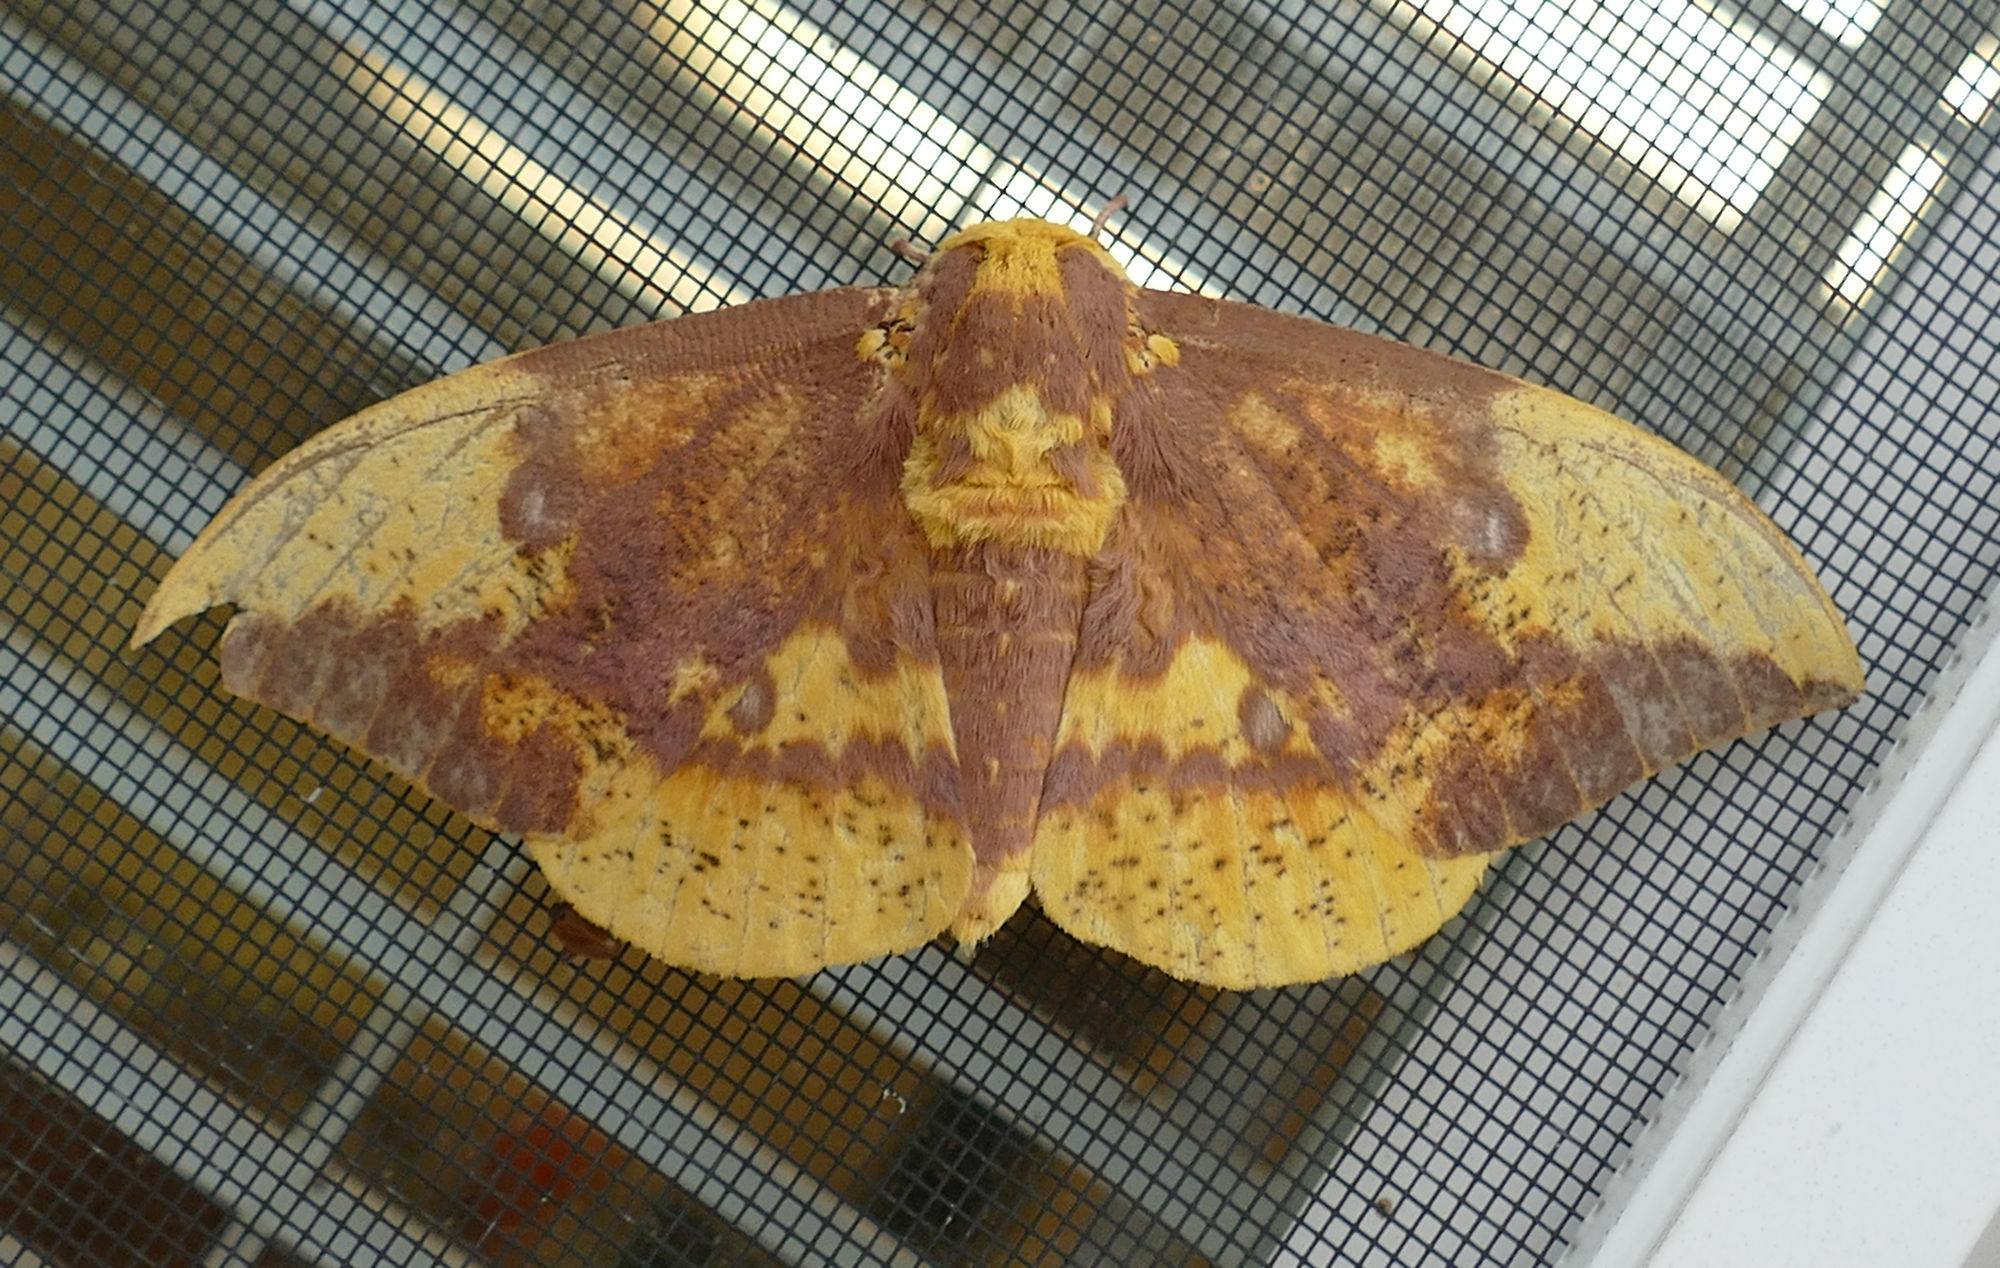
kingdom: Animalia
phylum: Arthropoda
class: Insecta
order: Lepidoptera
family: Saturniidae
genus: Eacles
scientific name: Eacles imperialis
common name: Imperial moth
